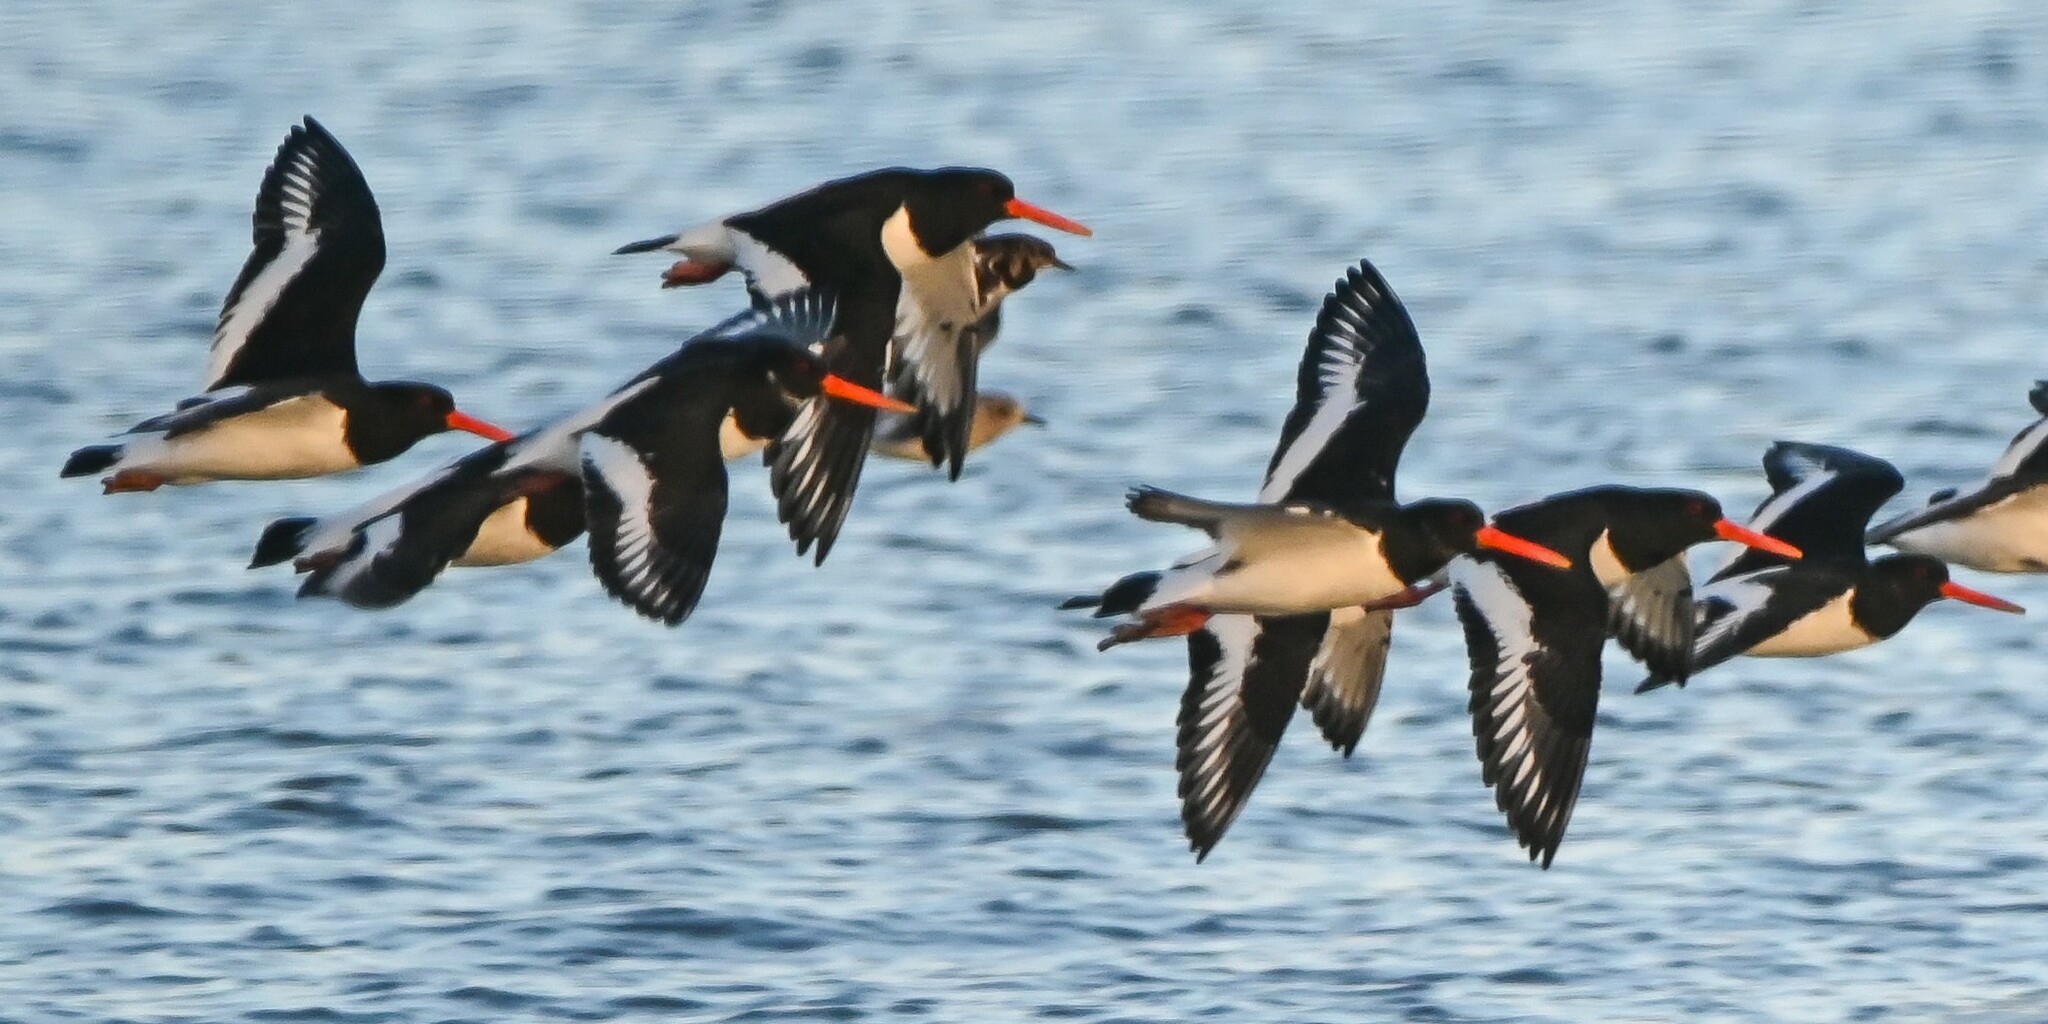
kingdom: Animalia
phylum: Chordata
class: Aves
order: Charadriiformes
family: Haematopodidae
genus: Haematopus
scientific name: Haematopus ostralegus
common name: Eurasian oystercatcher
